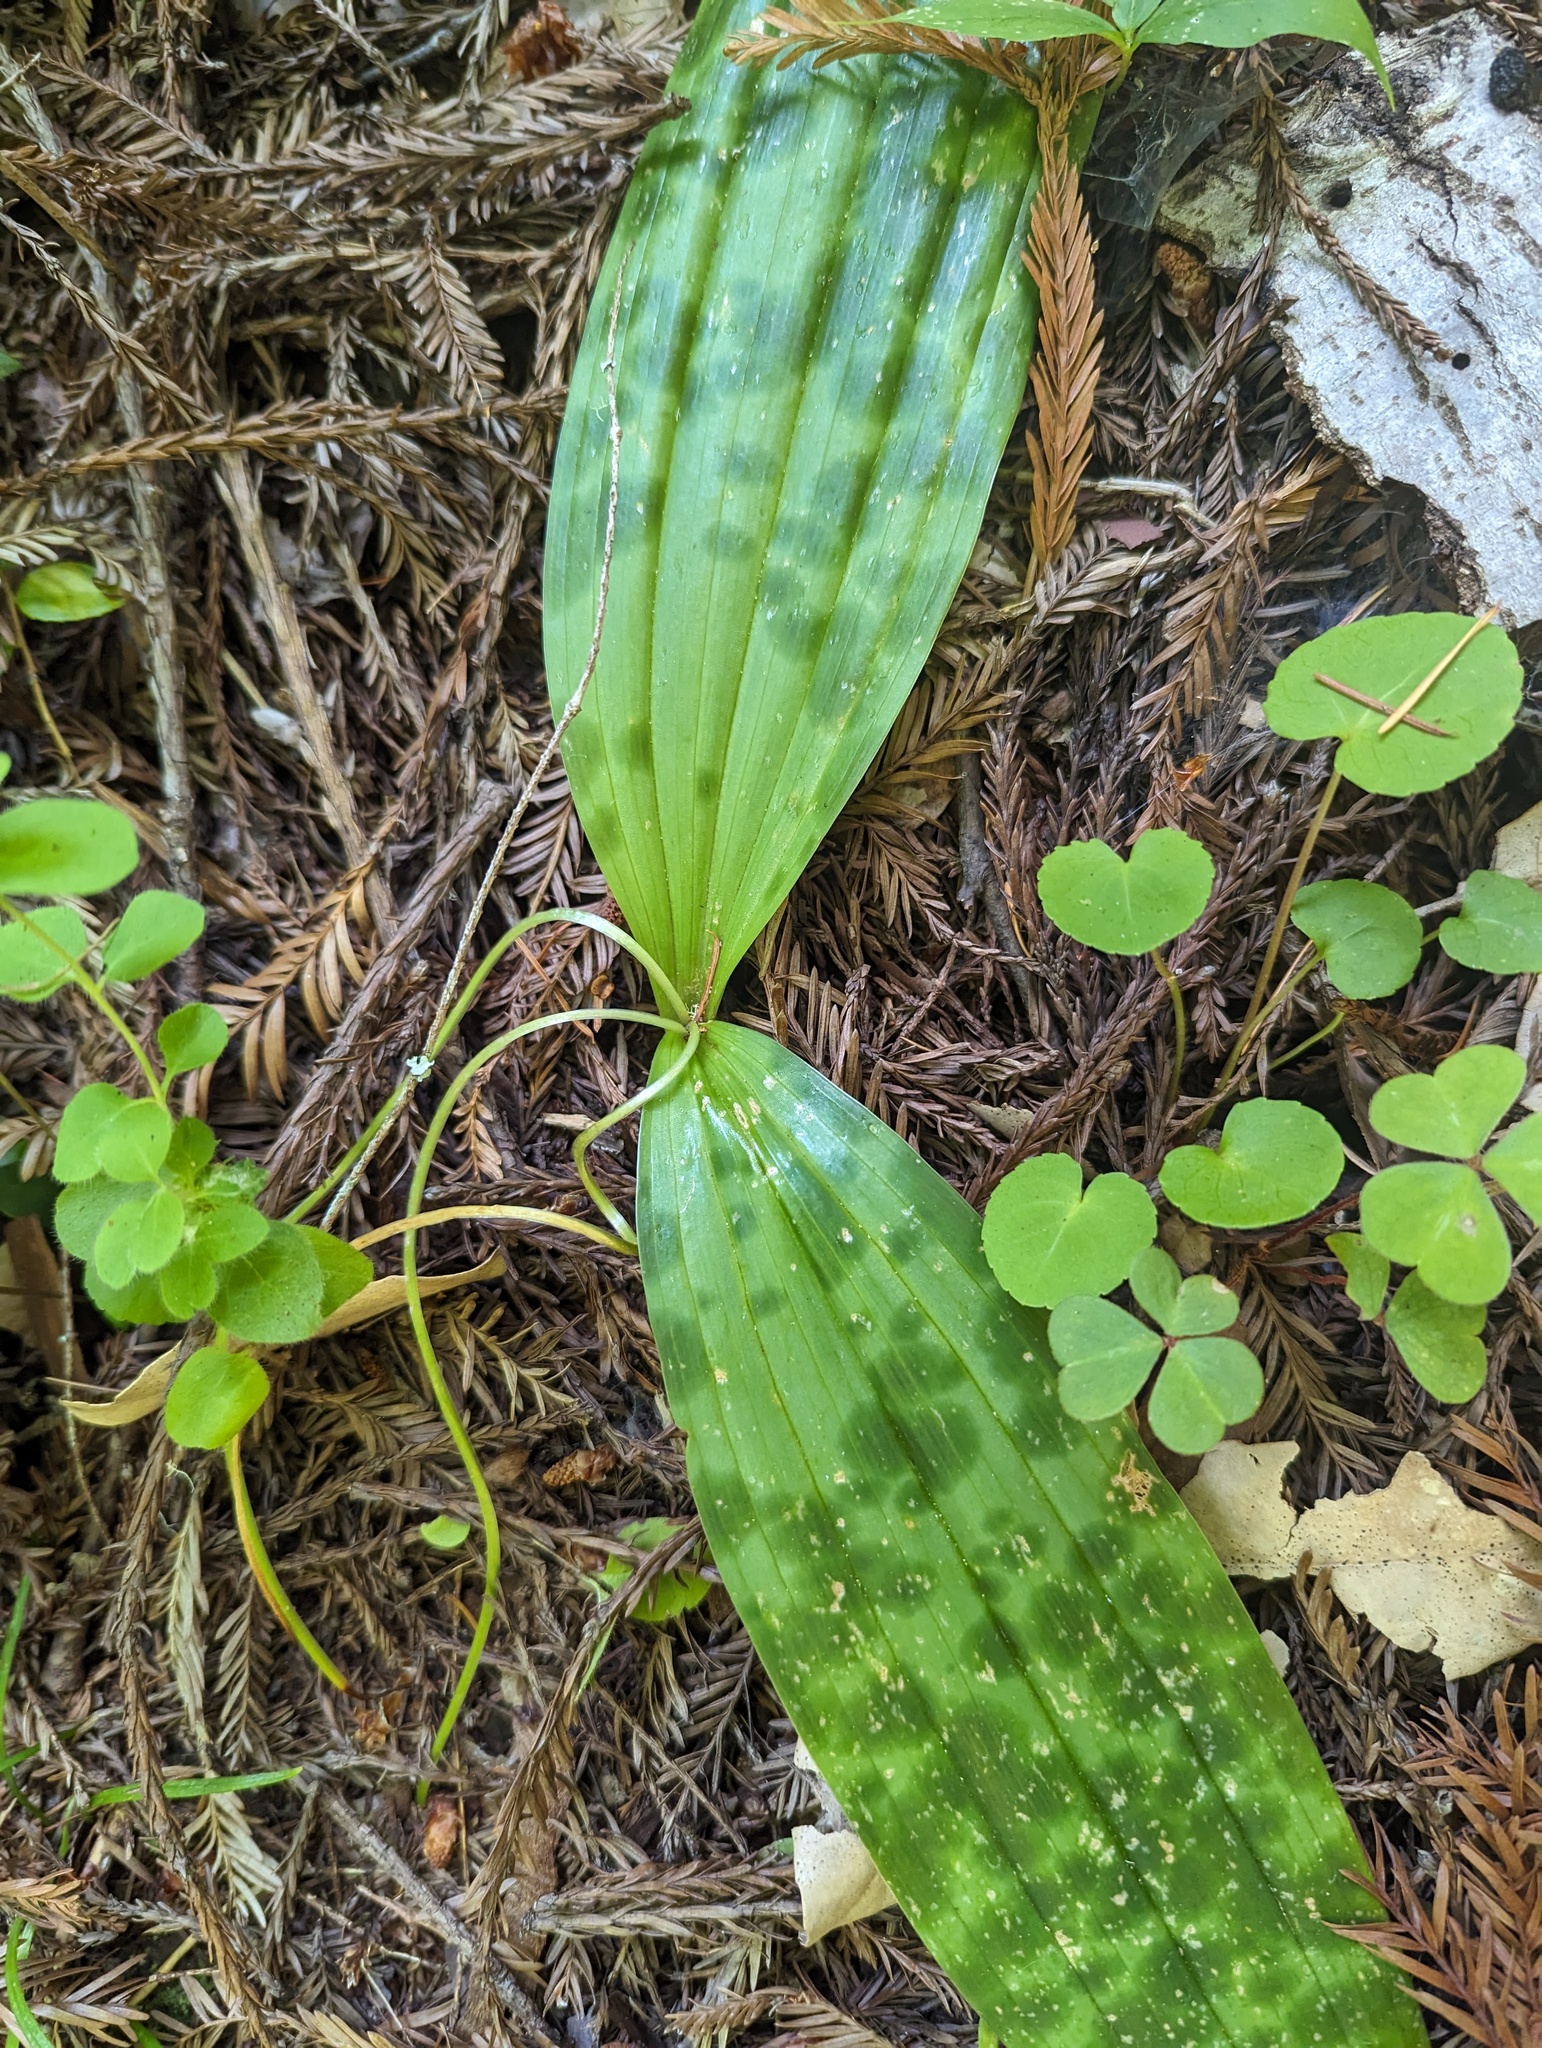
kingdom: Plantae
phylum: Tracheophyta
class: Liliopsida
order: Liliales
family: Liliaceae
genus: Scoliopus
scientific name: Scoliopus bigelovii
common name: Foetid adder's-tongue
